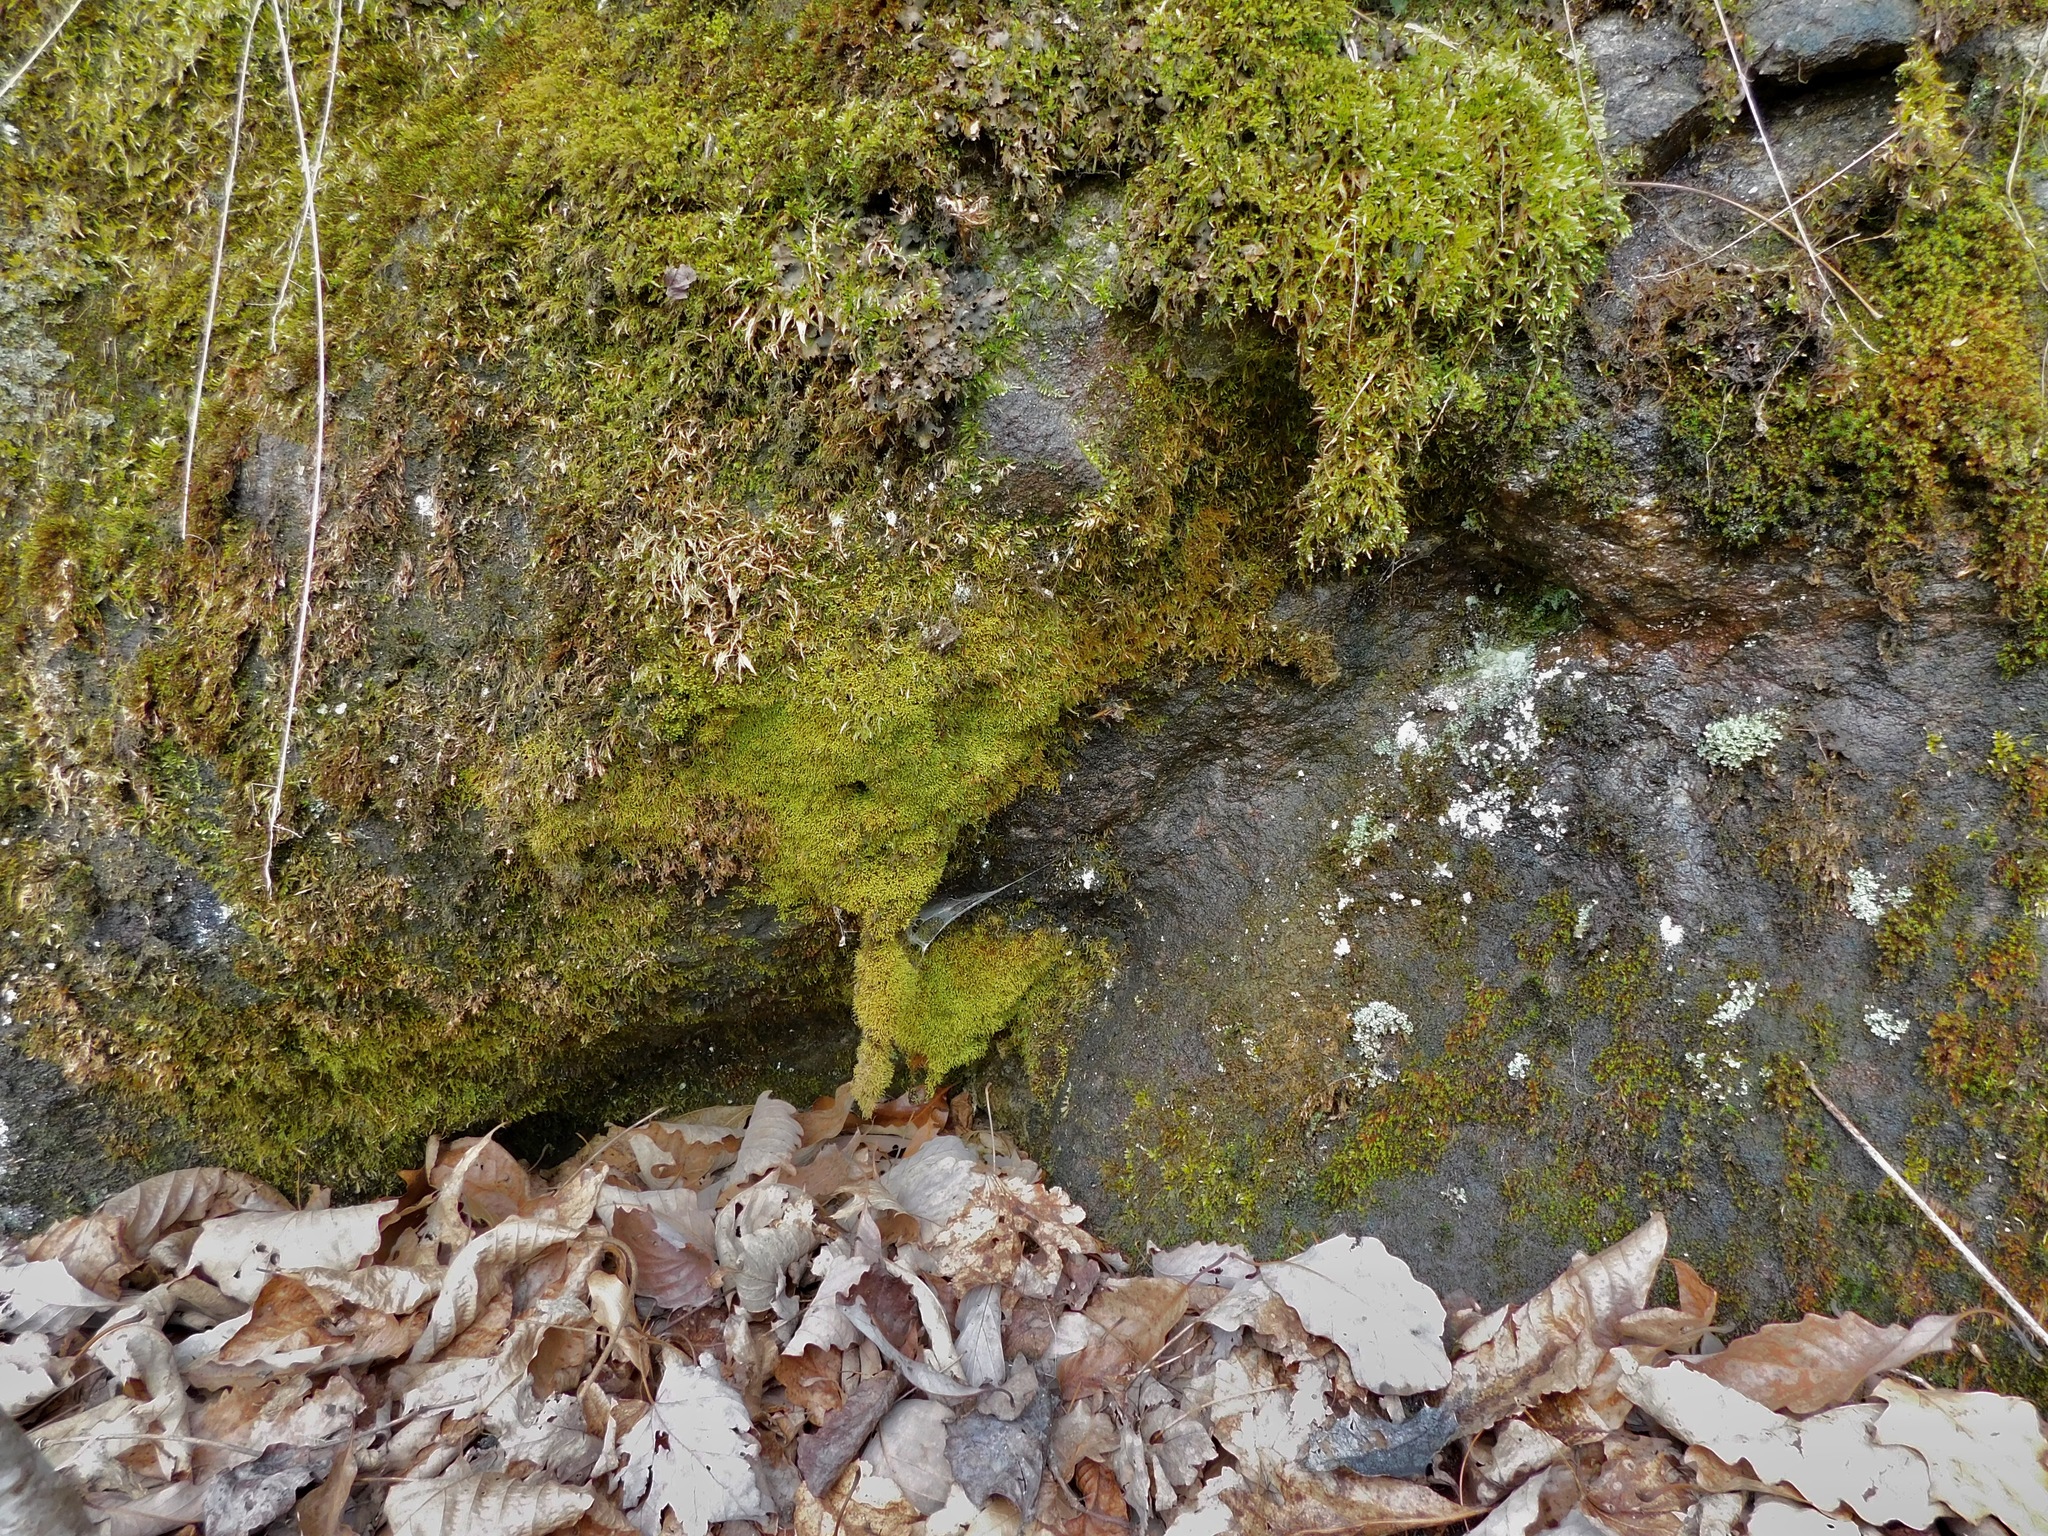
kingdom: Plantae
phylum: Bryophyta
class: Bryopsida
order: Hypnales
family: Brachytheciaceae
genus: Eurhynchiastrum
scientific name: Eurhynchiastrum pulchellum
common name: Elegant beaked moss
